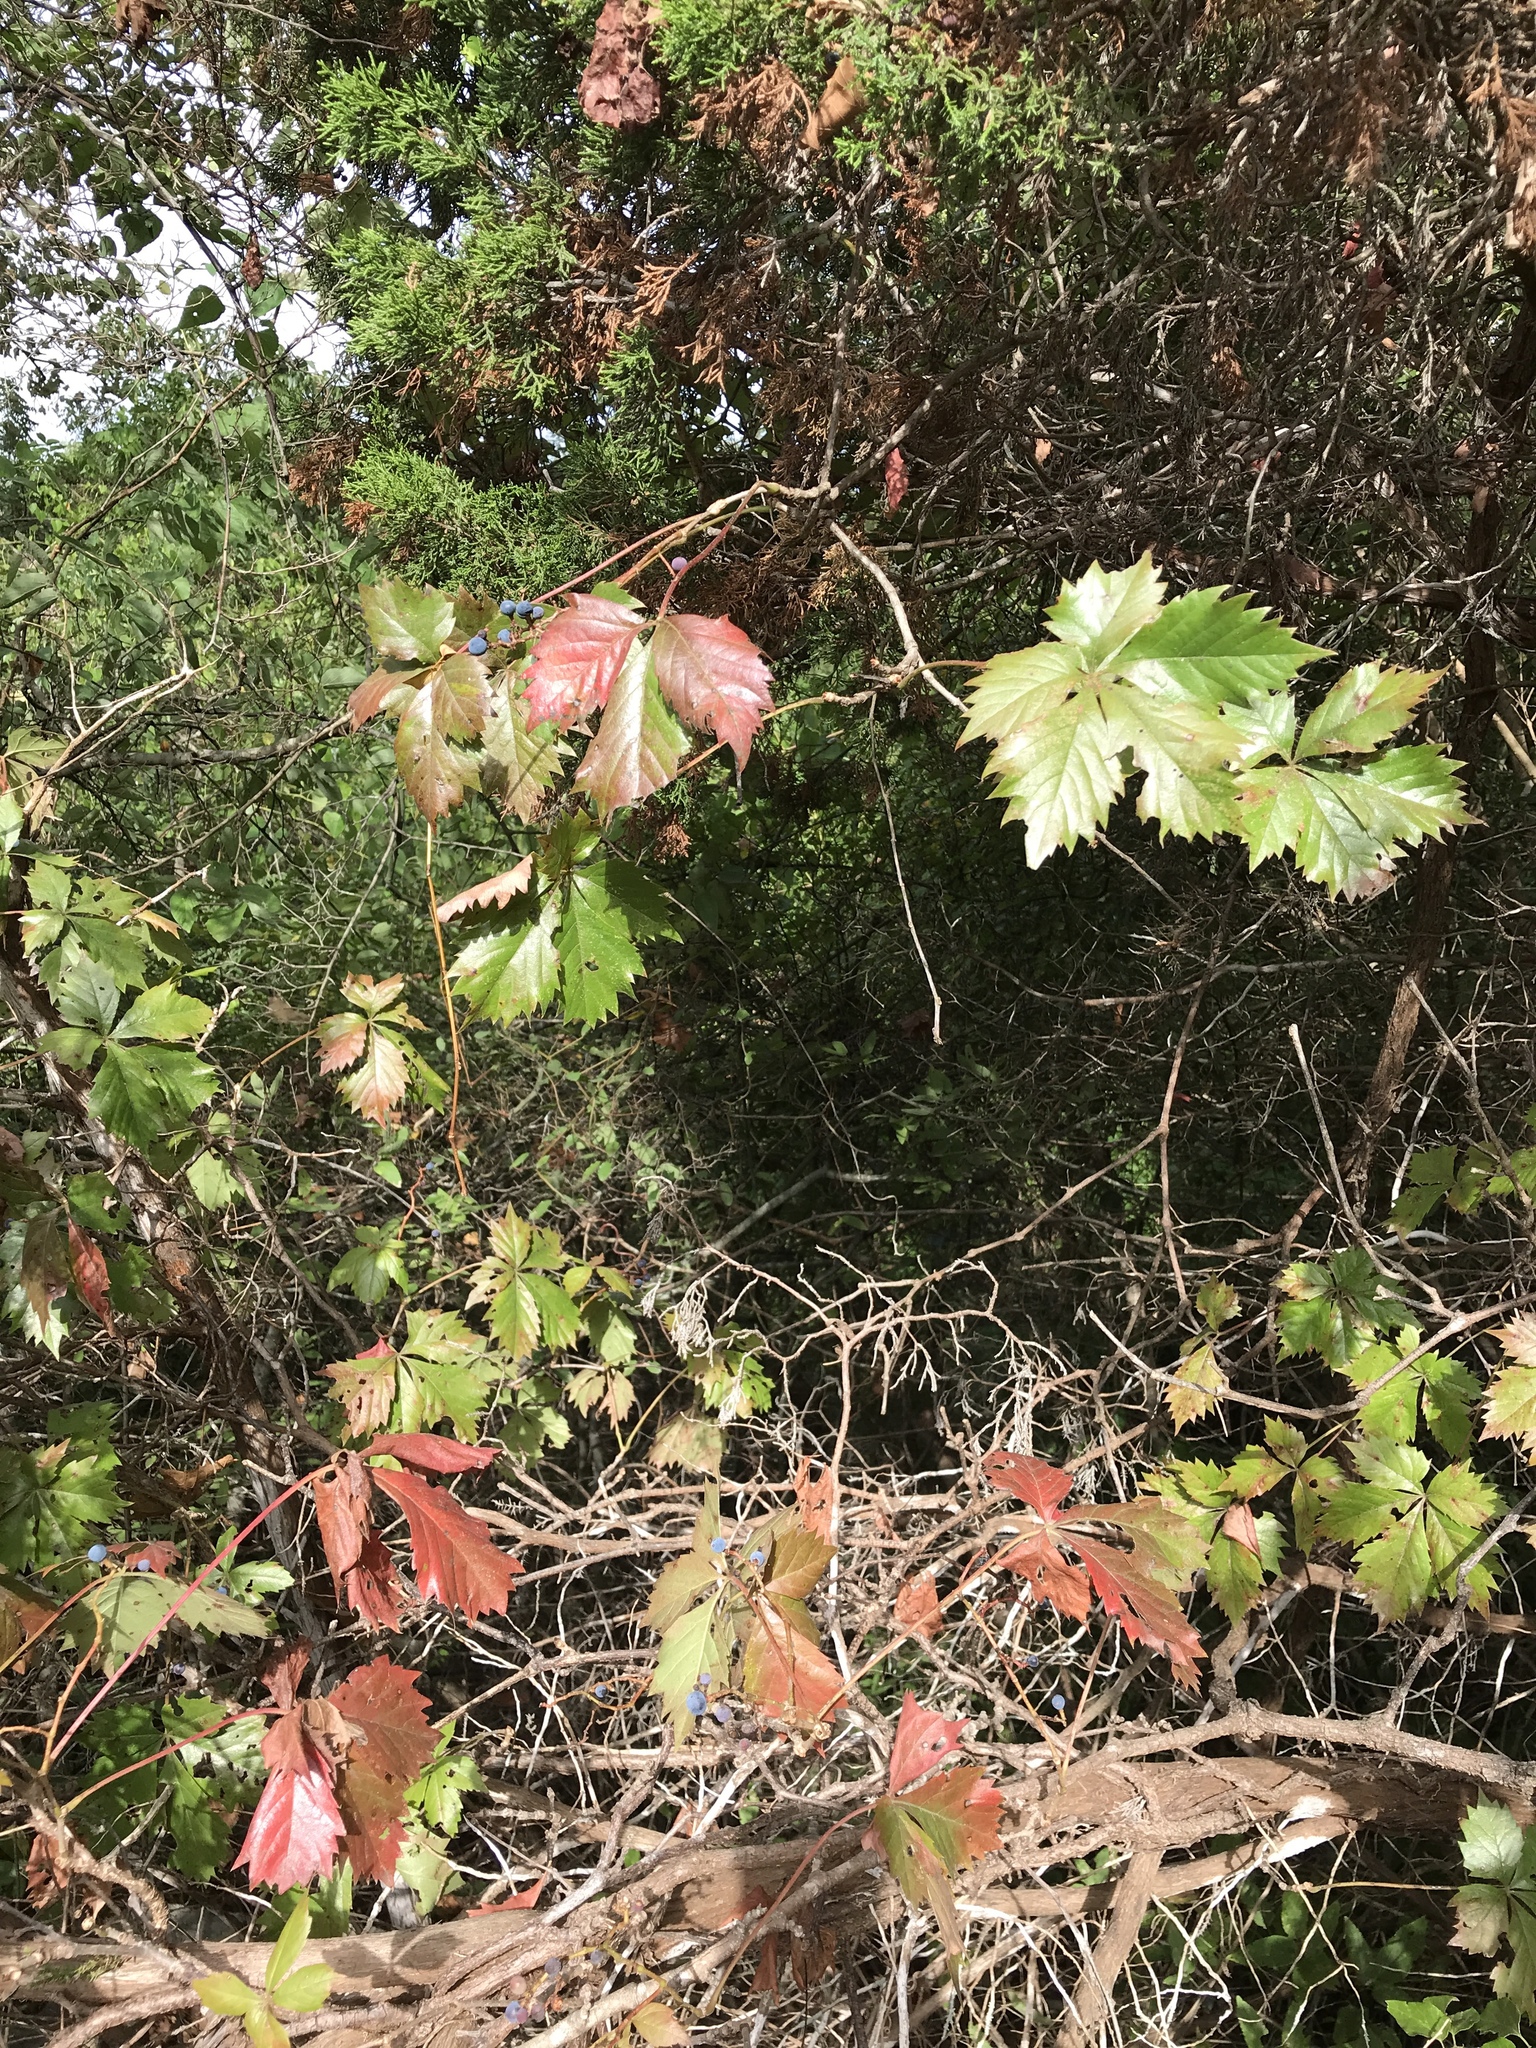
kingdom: Plantae
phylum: Tracheophyta
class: Magnoliopsida
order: Vitales
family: Vitaceae
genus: Parthenocissus
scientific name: Parthenocissus quinquefolia
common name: Virginia-creeper
